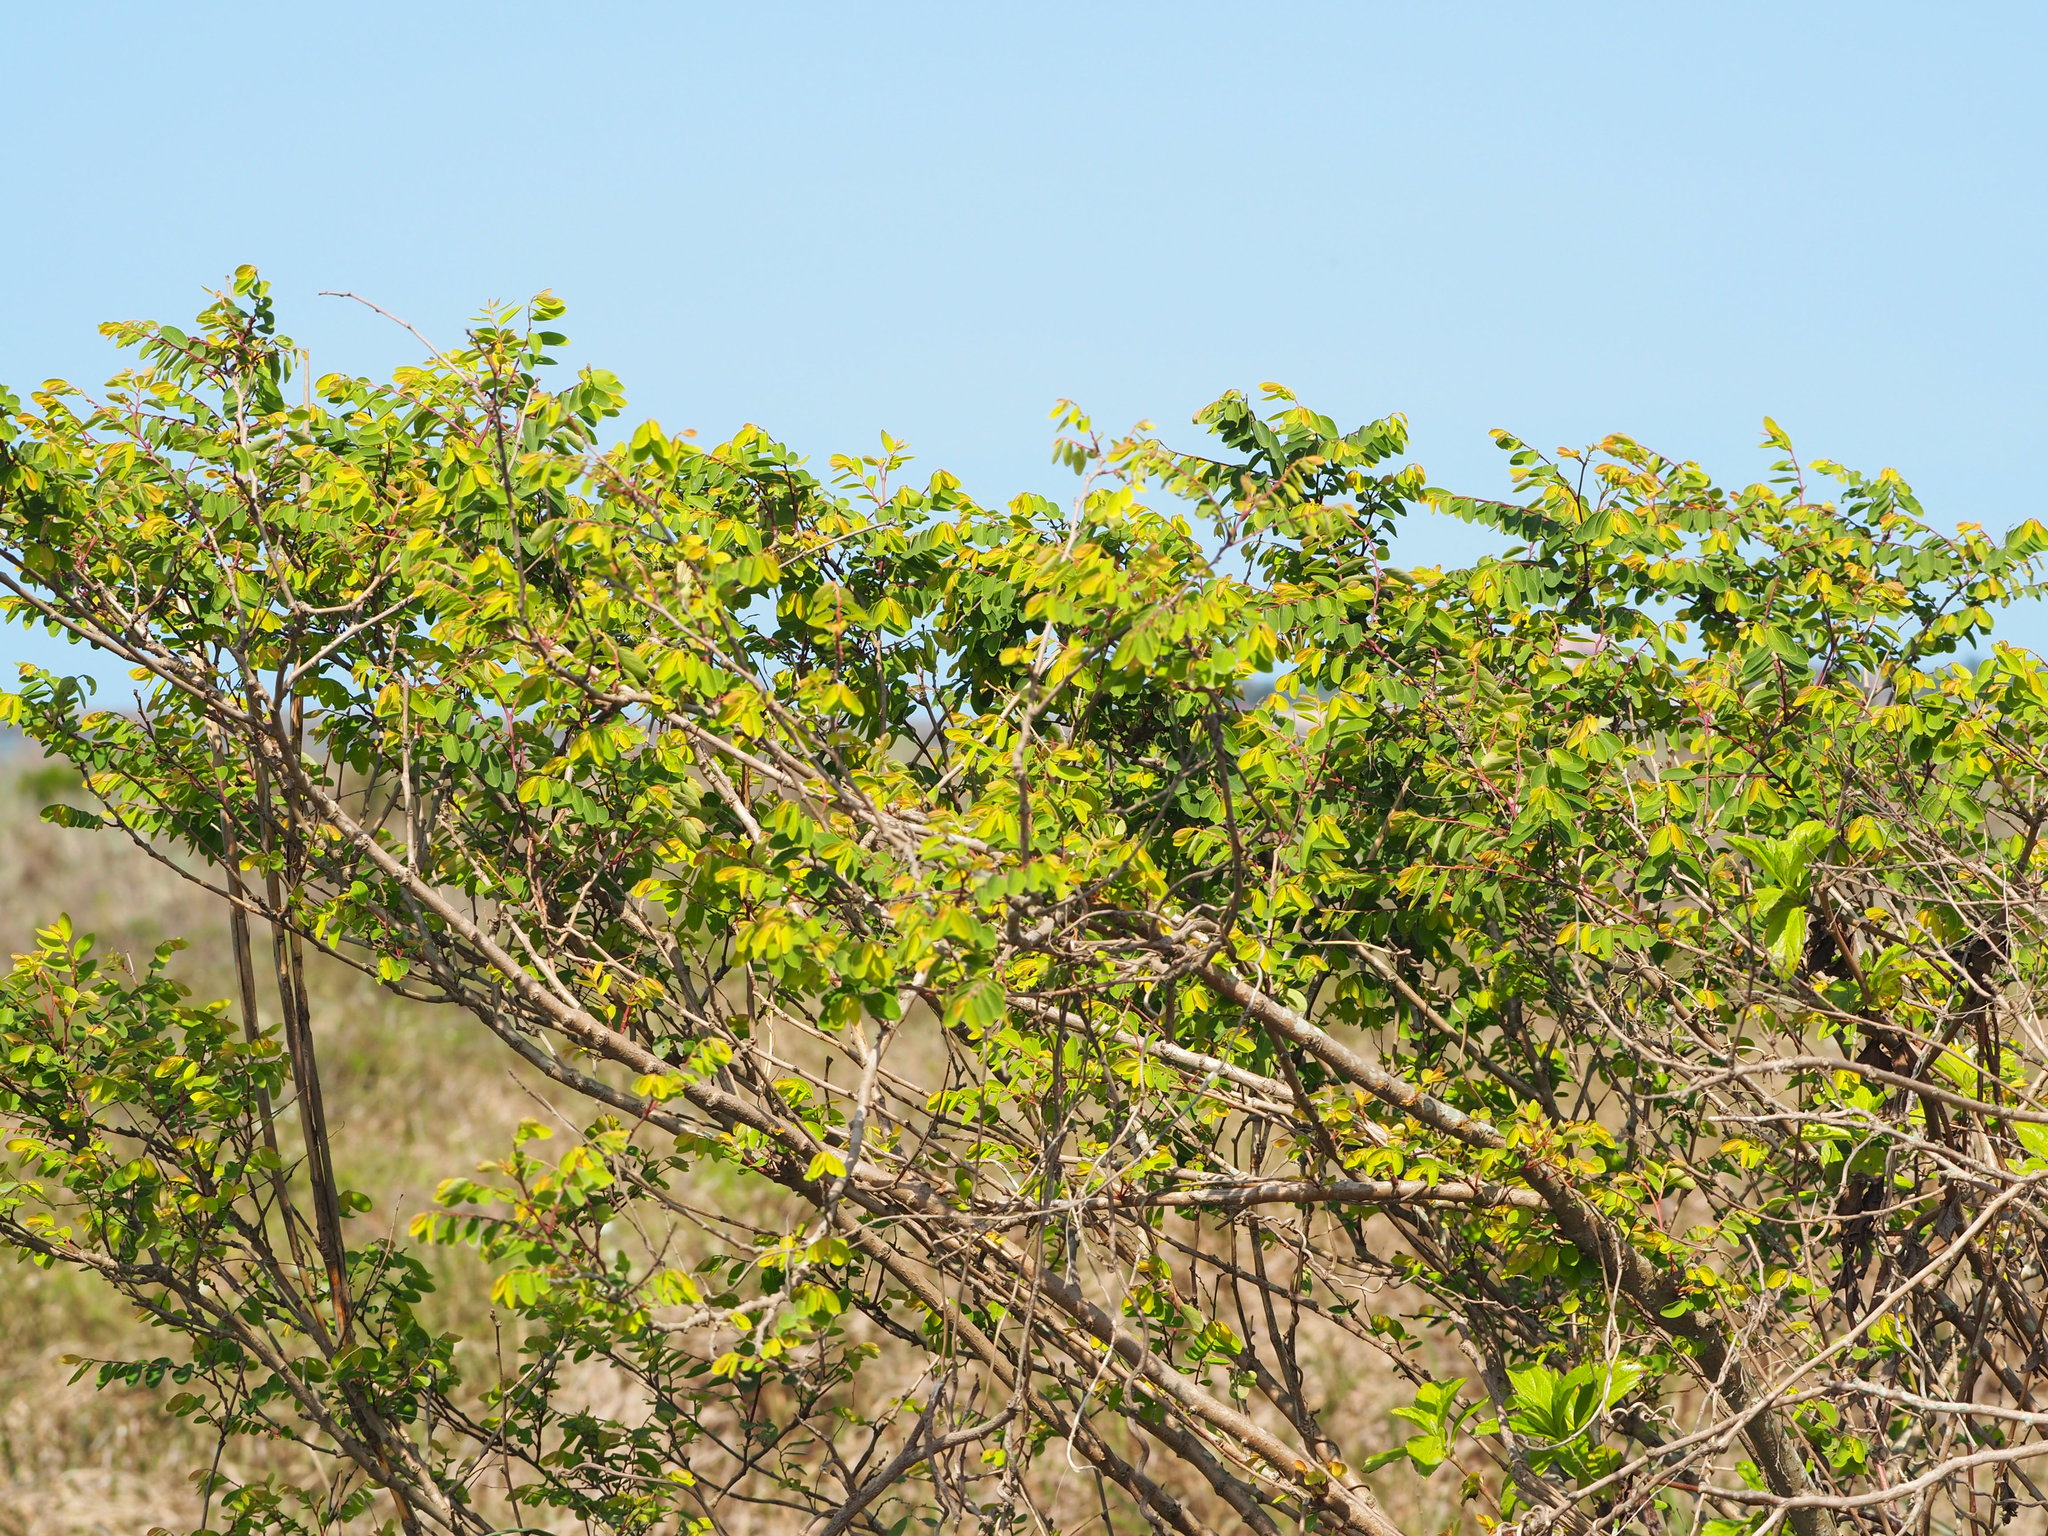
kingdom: Plantae
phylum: Tracheophyta
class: Magnoliopsida
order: Malpighiales
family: Phyllanthaceae
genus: Breynia
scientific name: Breynia vitis-idaea
